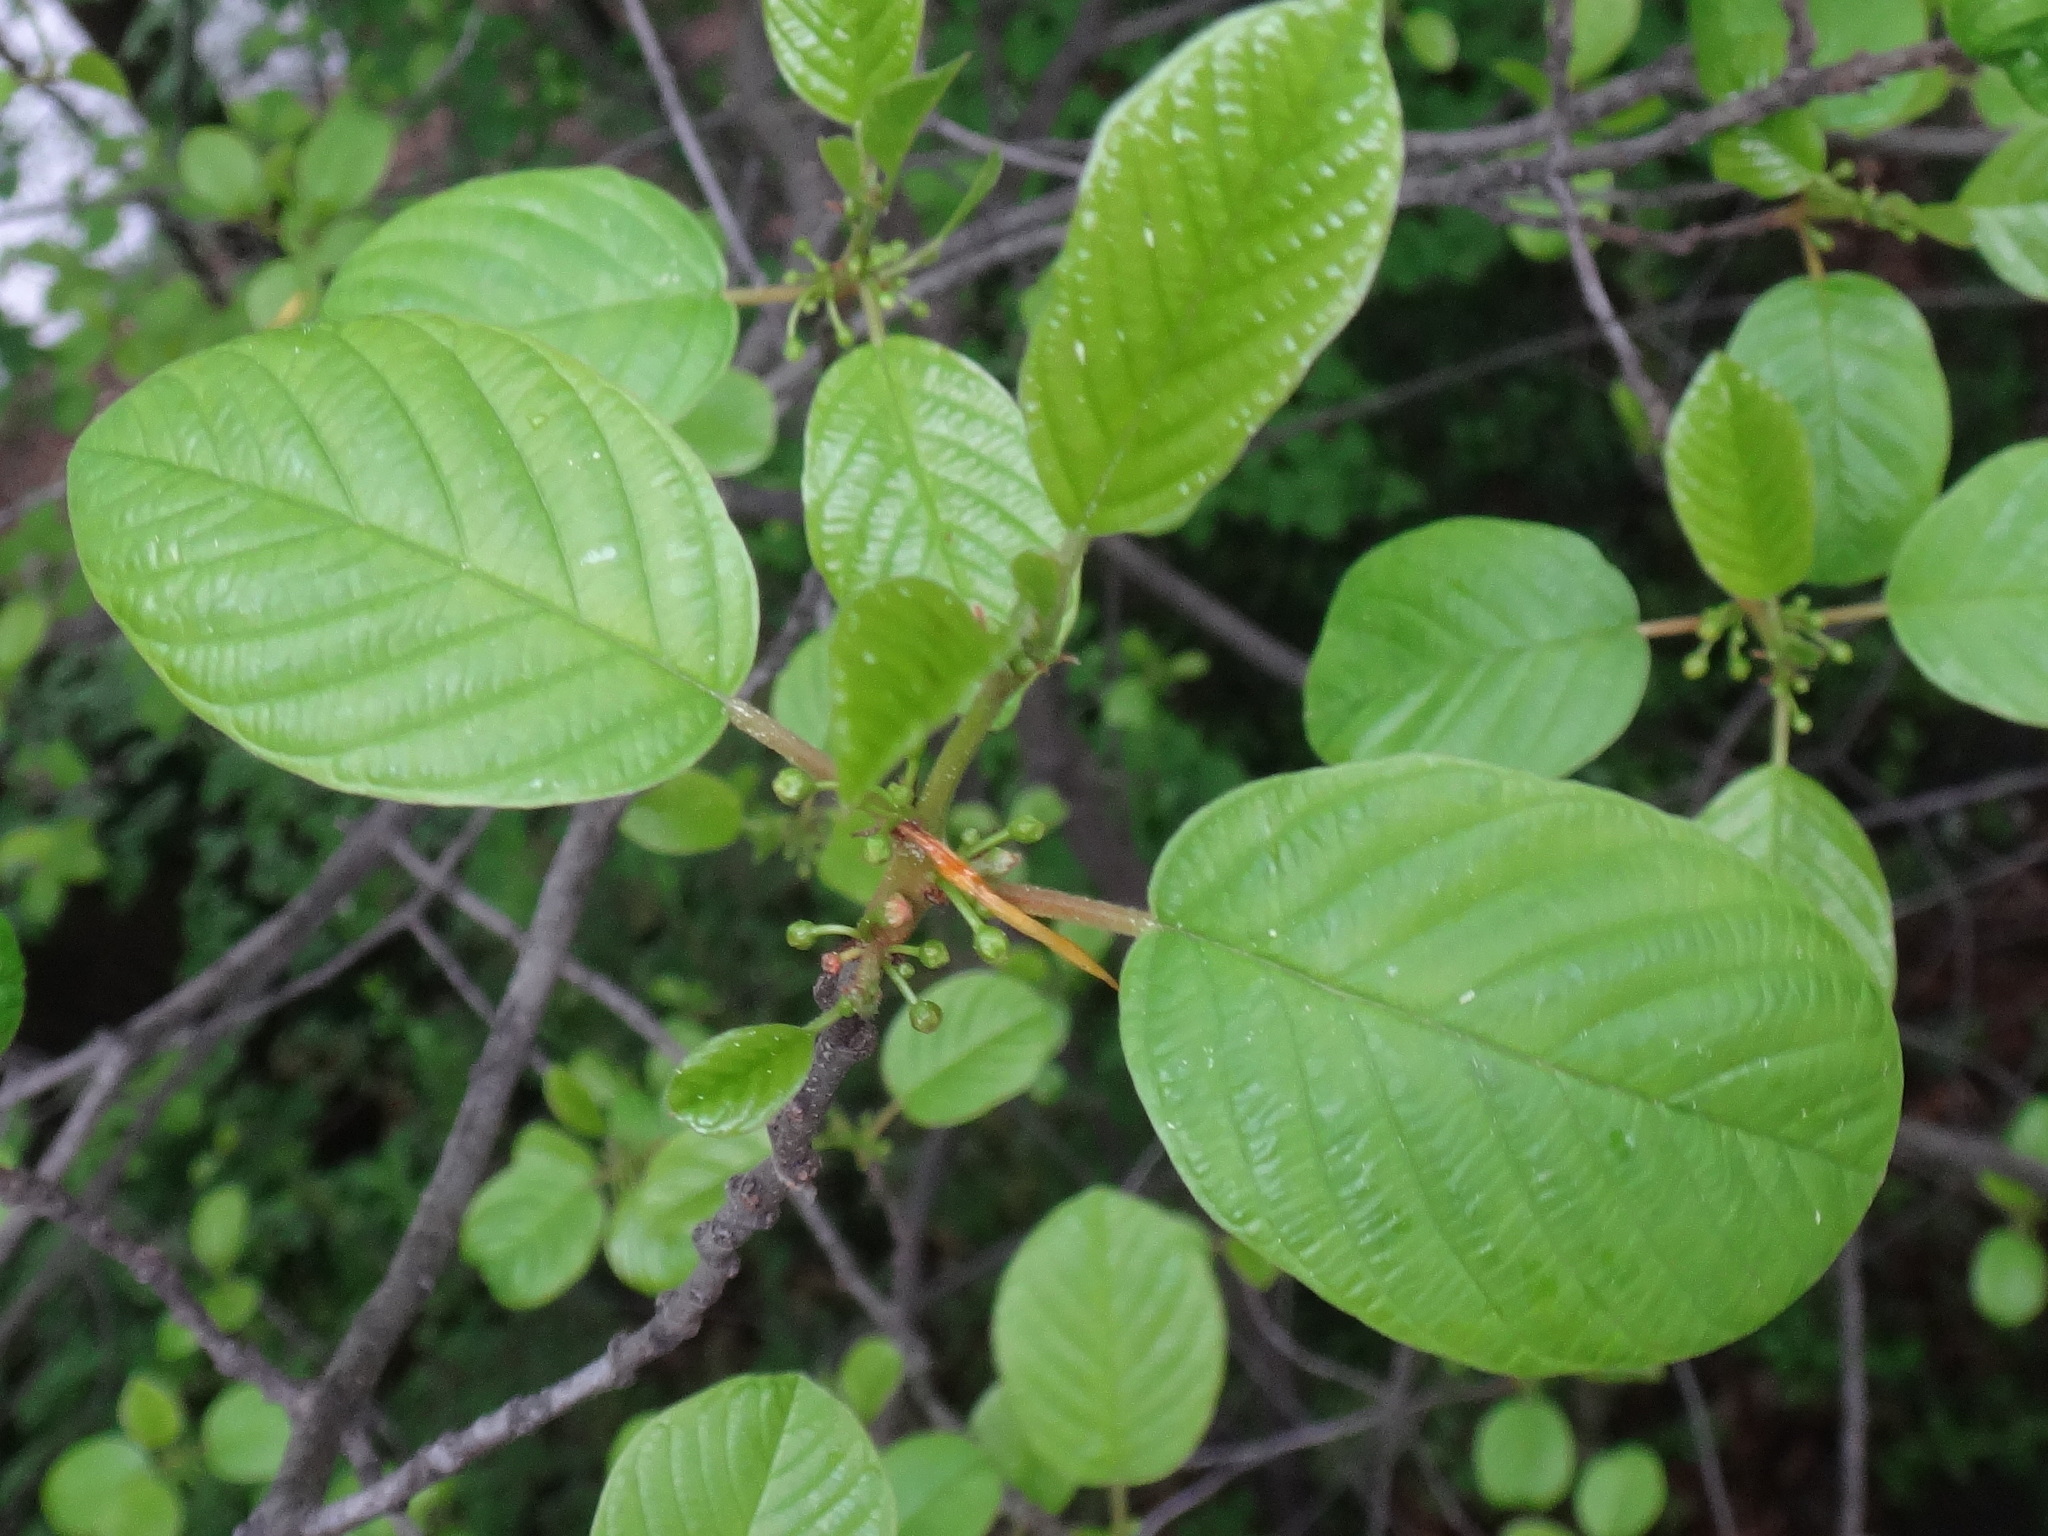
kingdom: Plantae
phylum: Tracheophyta
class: Magnoliopsida
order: Rosales
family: Rhamnaceae
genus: Frangula
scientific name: Frangula alnus
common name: Alder buckthorn
